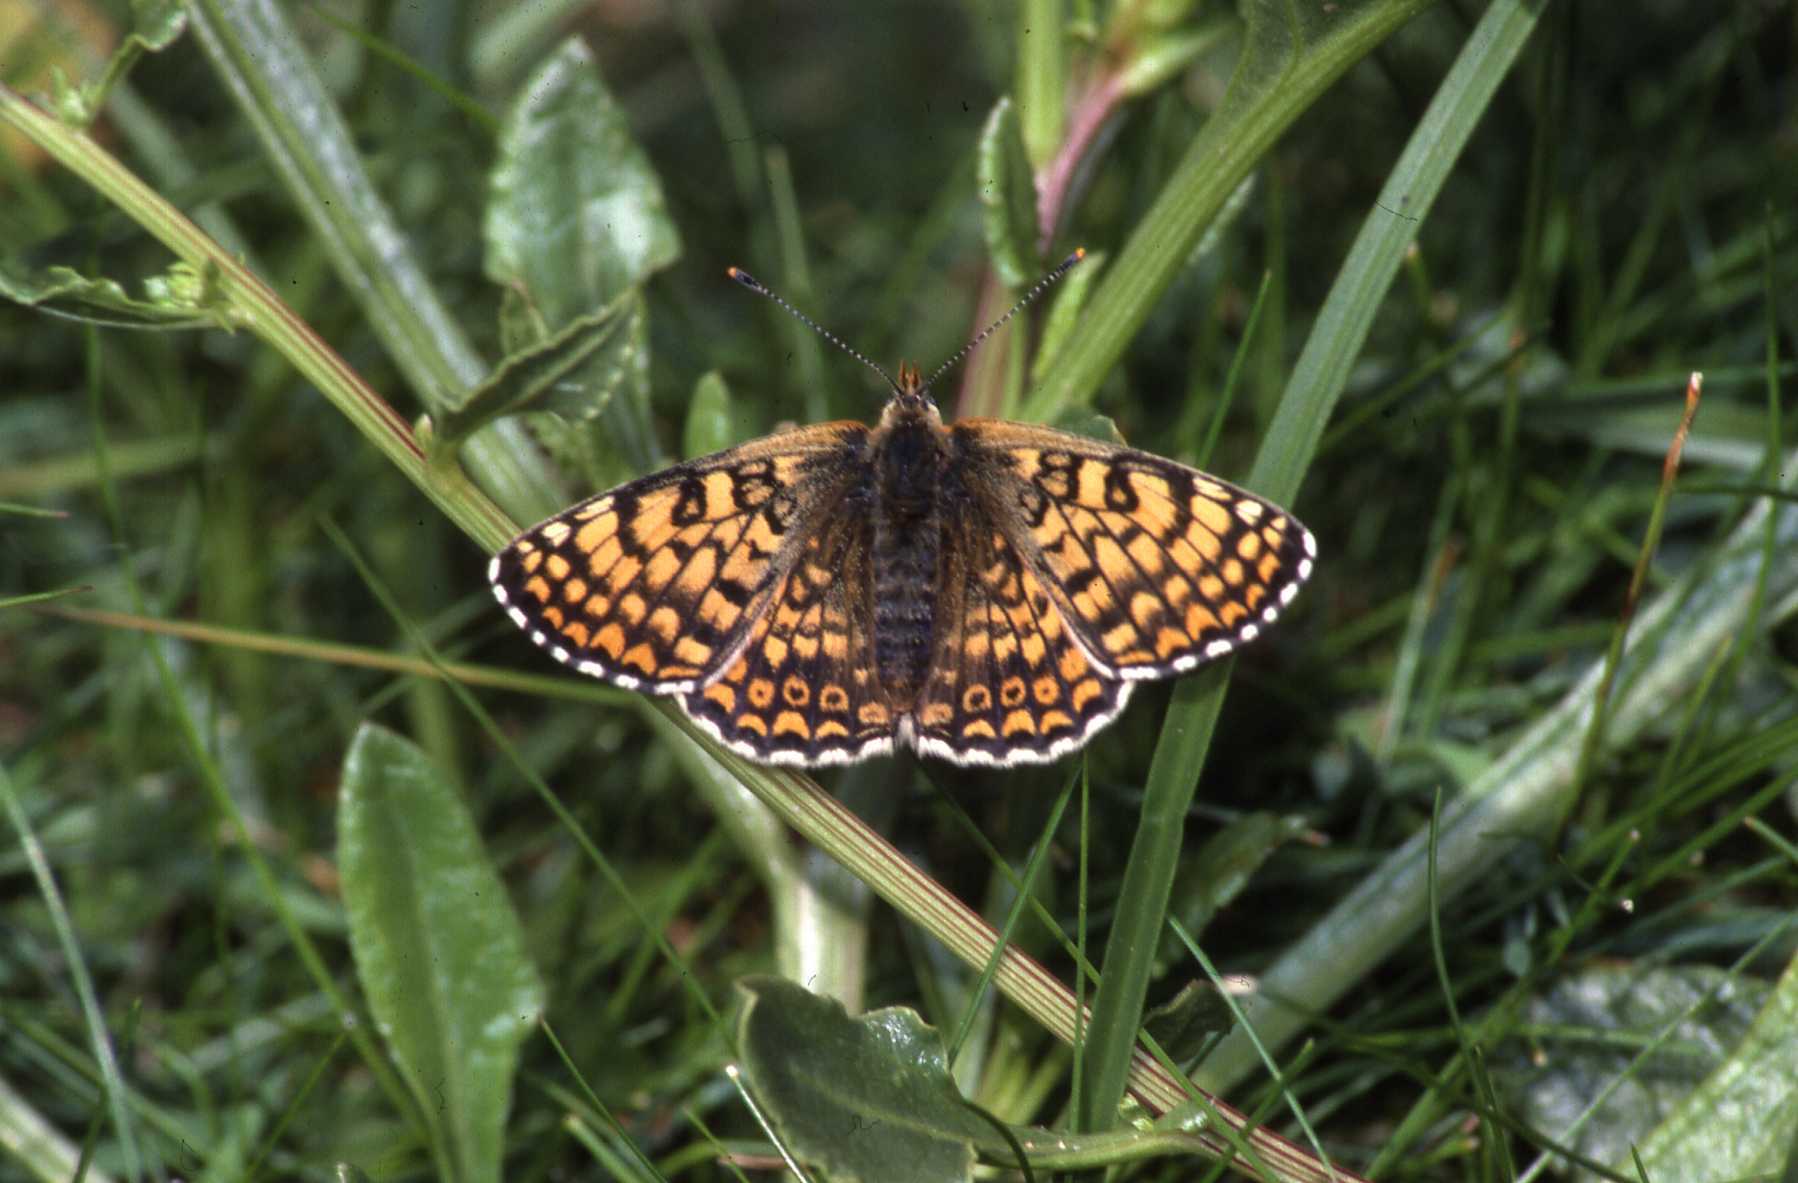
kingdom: Animalia
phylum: Arthropoda
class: Insecta
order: Lepidoptera
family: Nymphalidae
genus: Melitaea
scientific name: Melitaea cinxia
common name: Glanville fritillary
